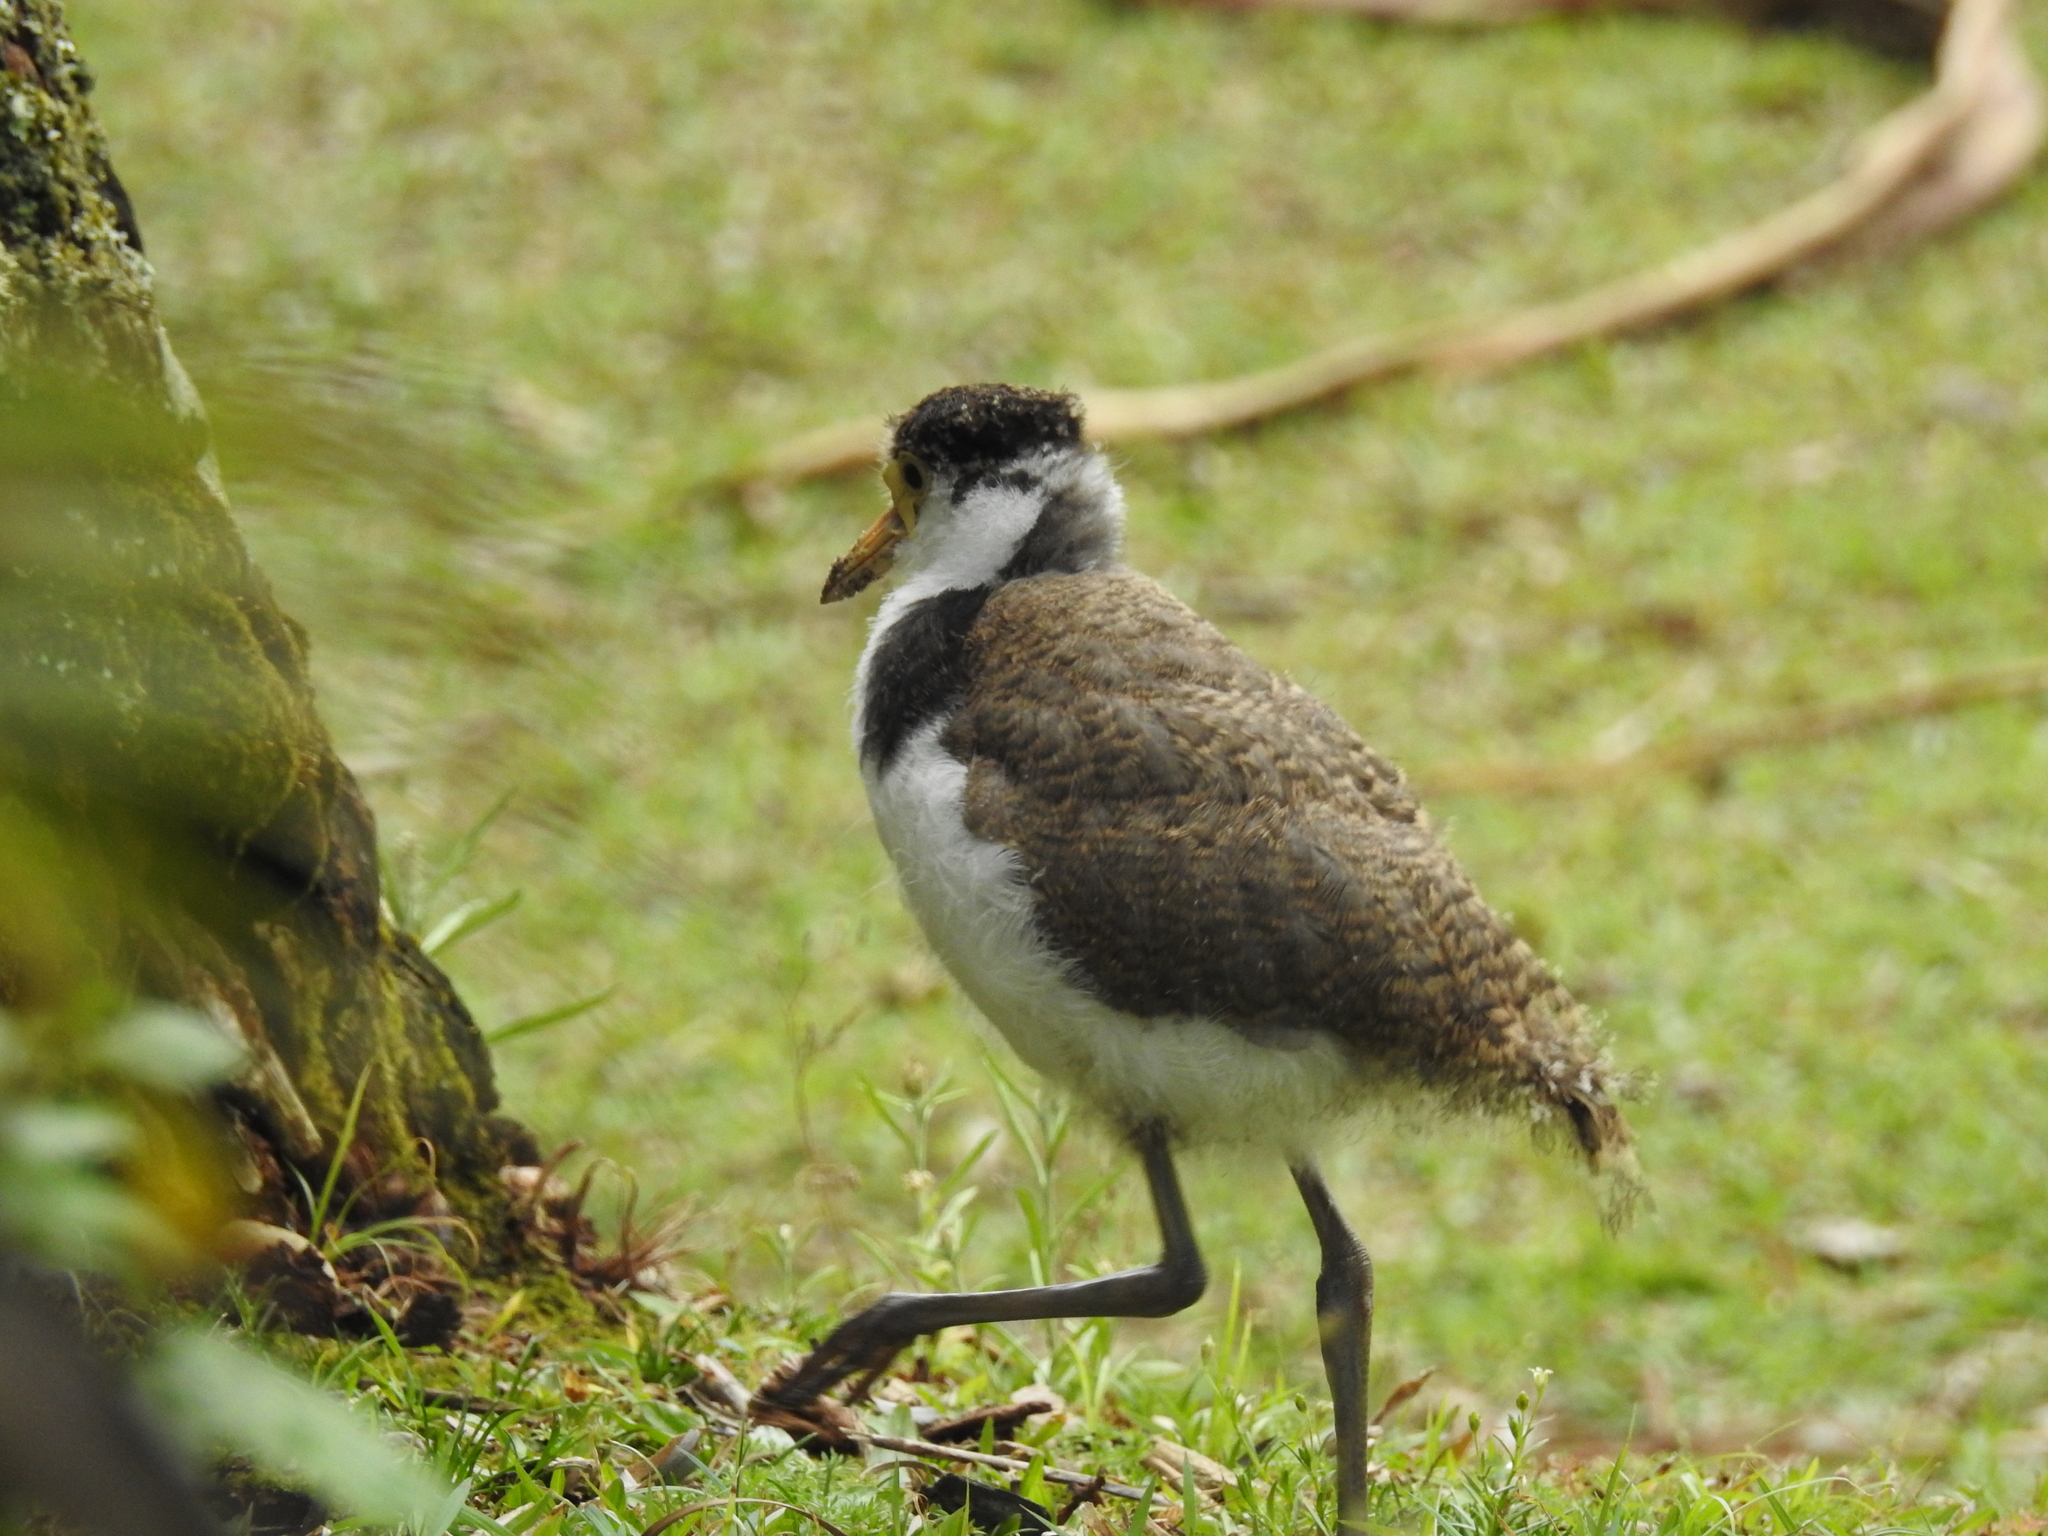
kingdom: Animalia
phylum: Chordata
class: Aves
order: Charadriiformes
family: Charadriidae
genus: Vanellus
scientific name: Vanellus miles
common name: Masked lapwing
